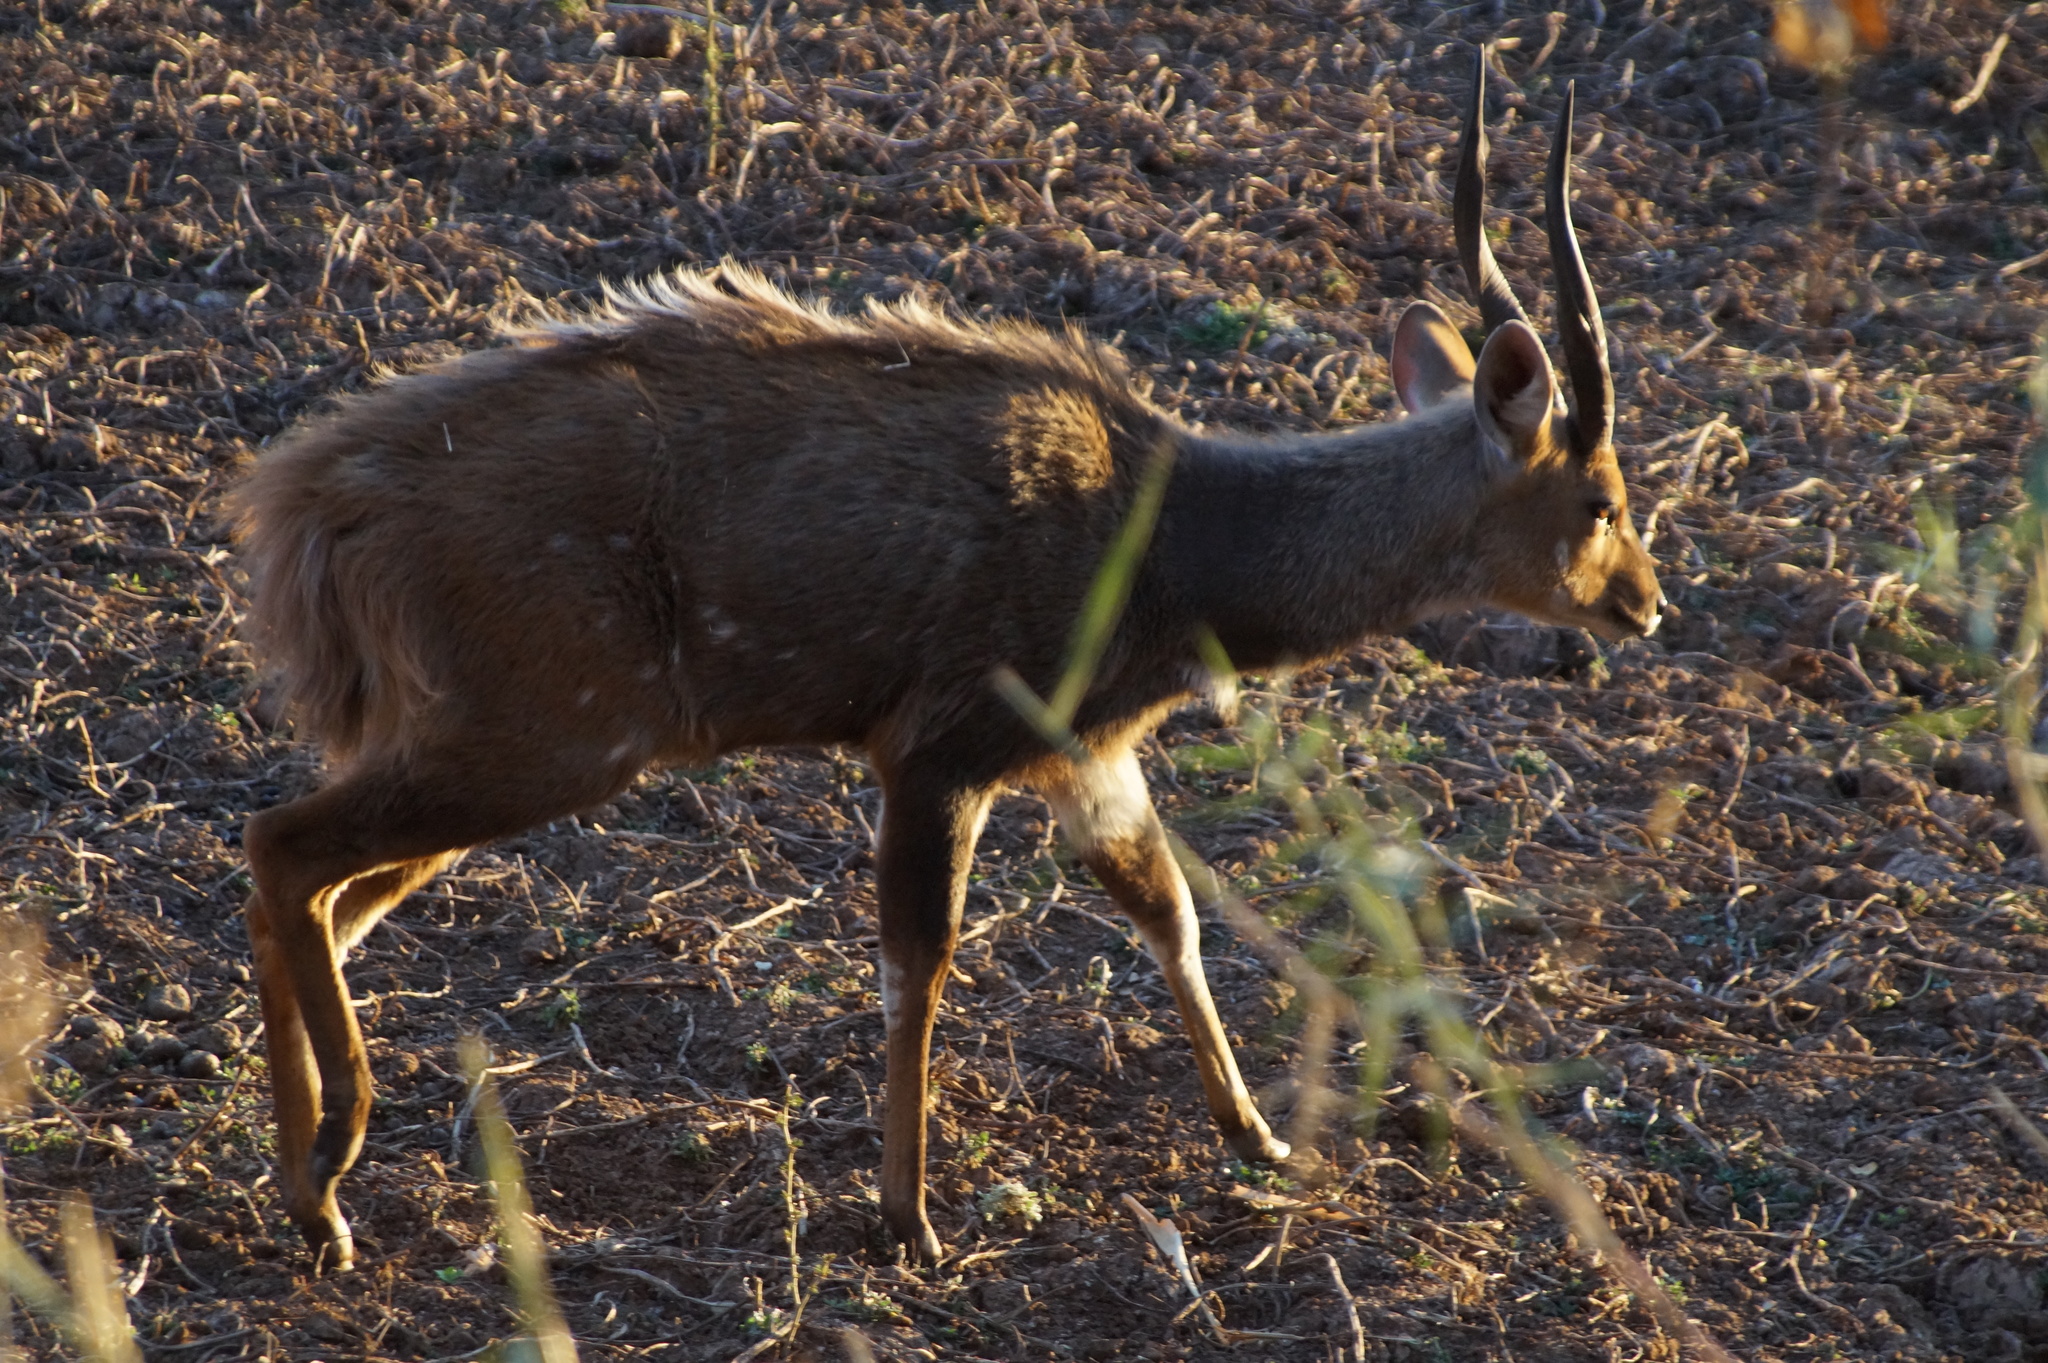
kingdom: Animalia
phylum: Chordata
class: Mammalia
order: Artiodactyla
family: Bovidae
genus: Tragelaphus
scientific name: Tragelaphus scriptus
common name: Bushbuck
